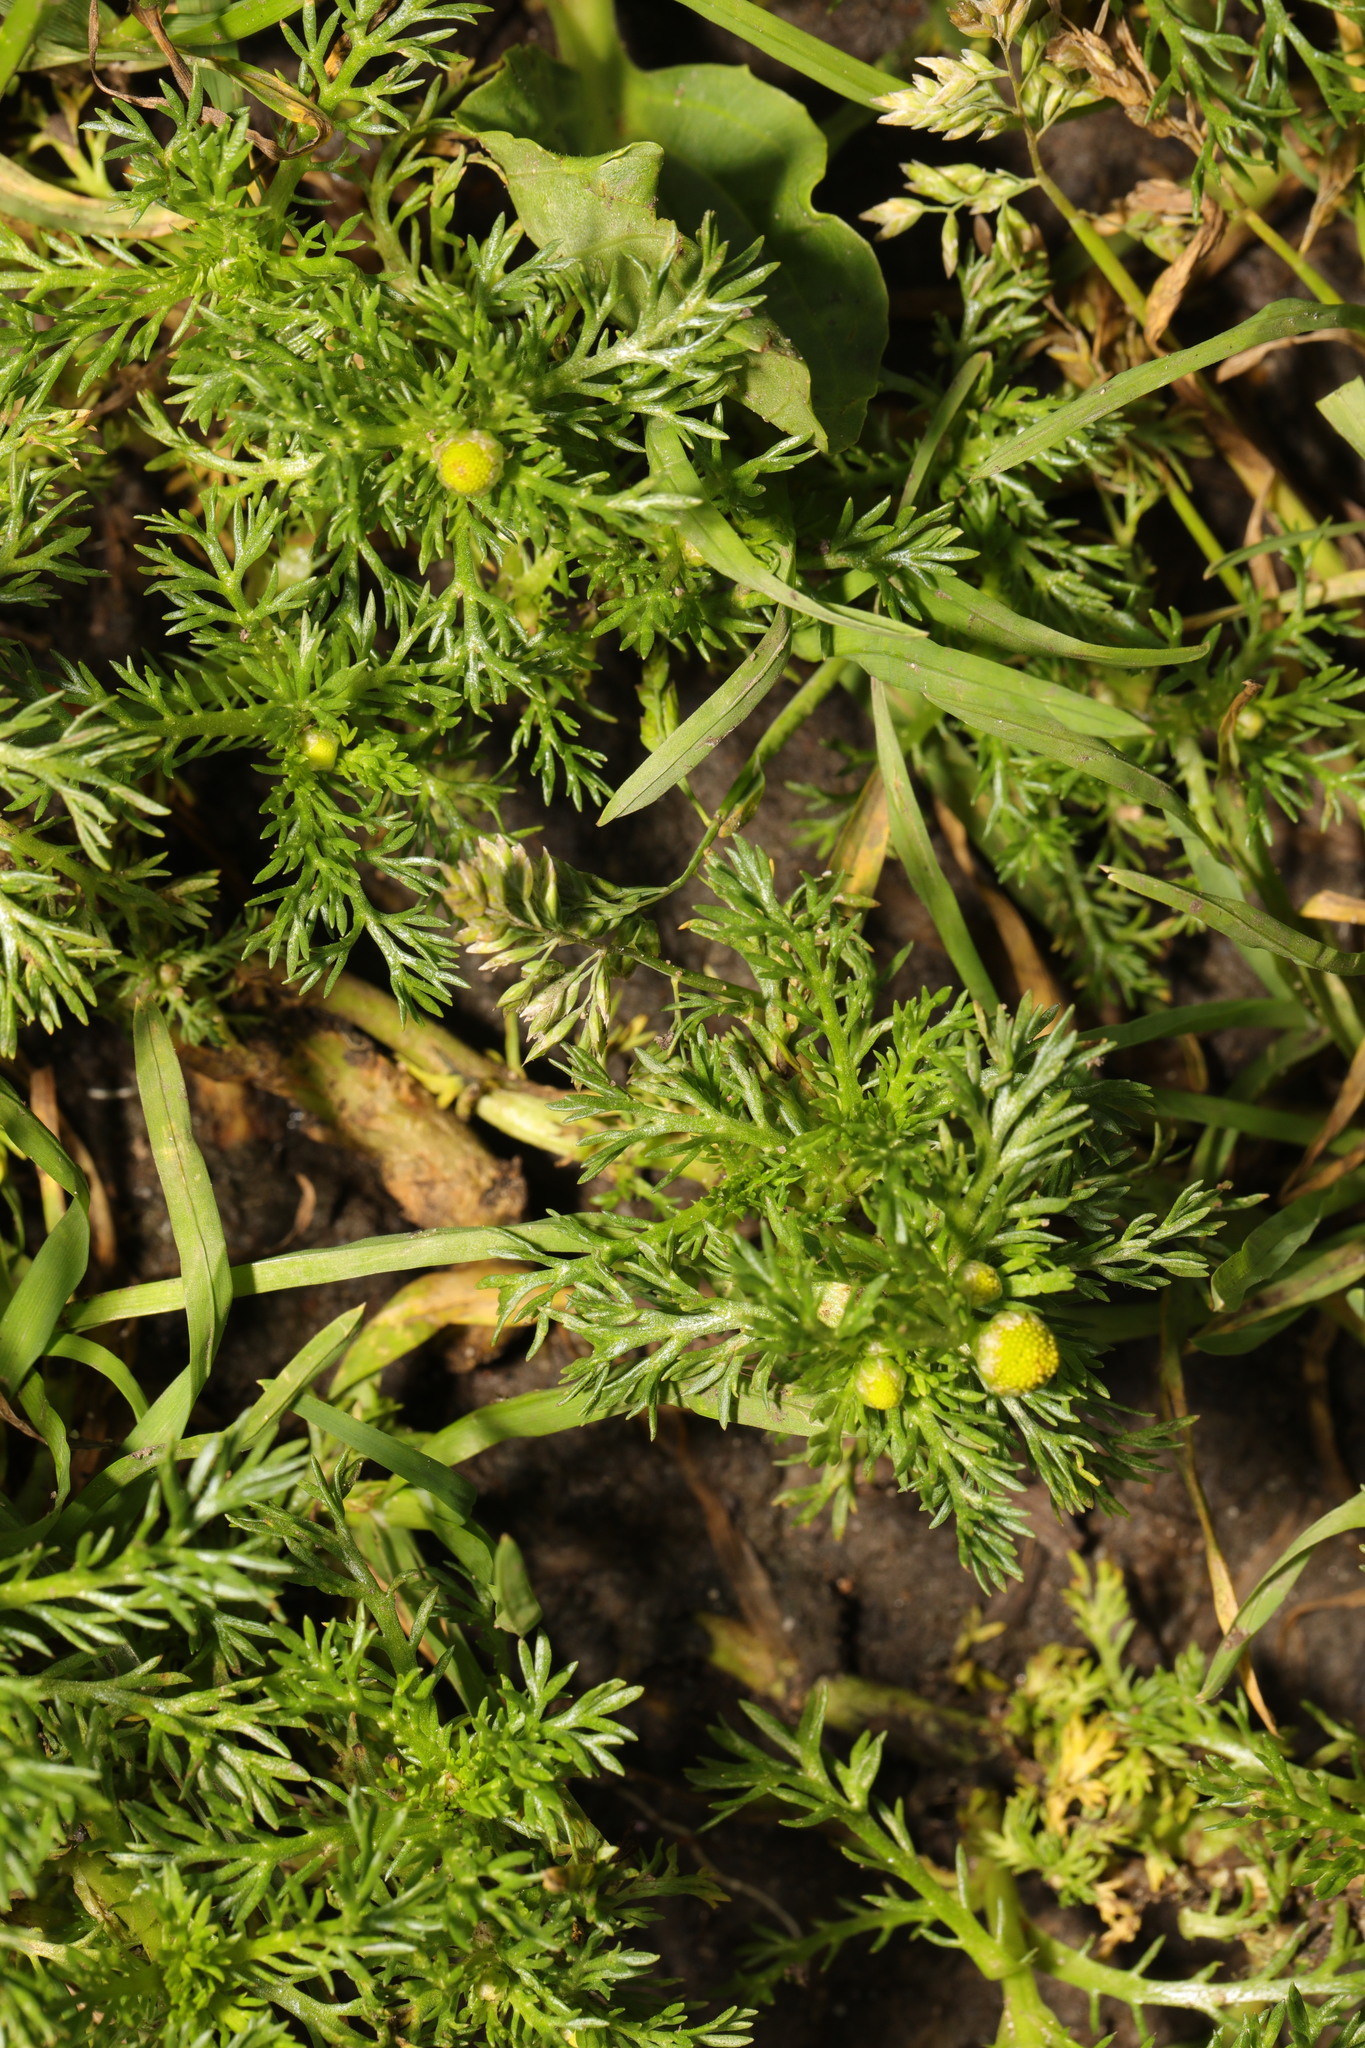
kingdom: Plantae
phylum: Tracheophyta
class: Magnoliopsida
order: Asterales
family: Asteraceae
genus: Matricaria
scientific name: Matricaria discoidea
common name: Disc mayweed
